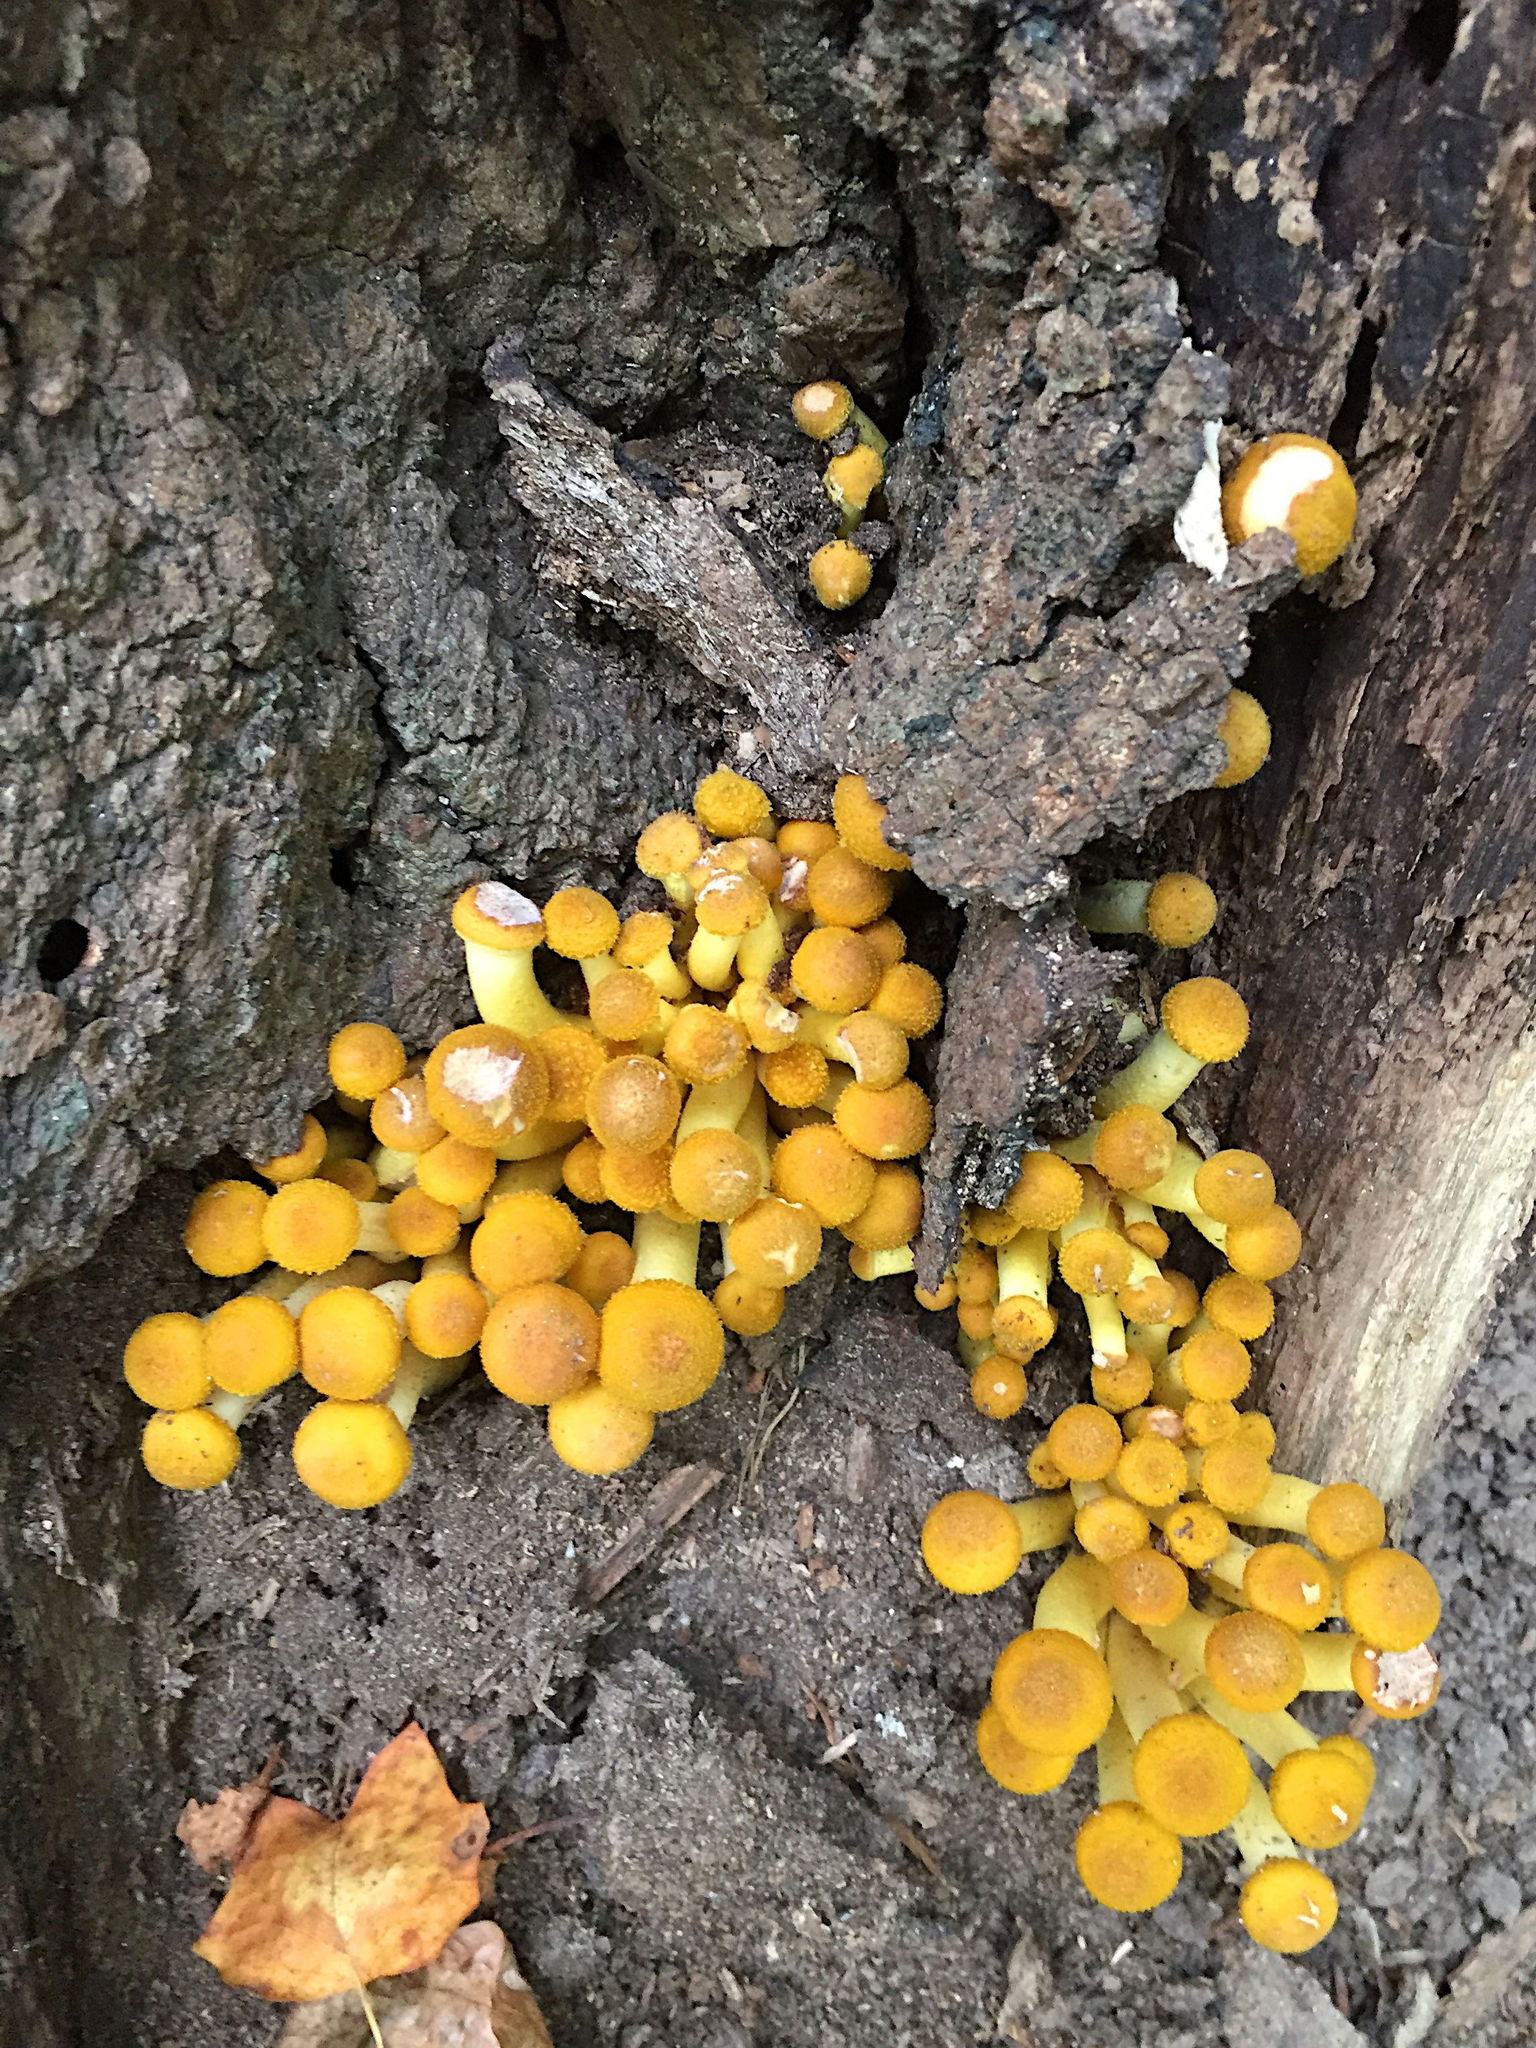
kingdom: Fungi
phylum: Basidiomycota
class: Agaricomycetes
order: Agaricales
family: Physalacriaceae
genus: Armillaria
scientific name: Armillaria mellea
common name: Honey fungus
